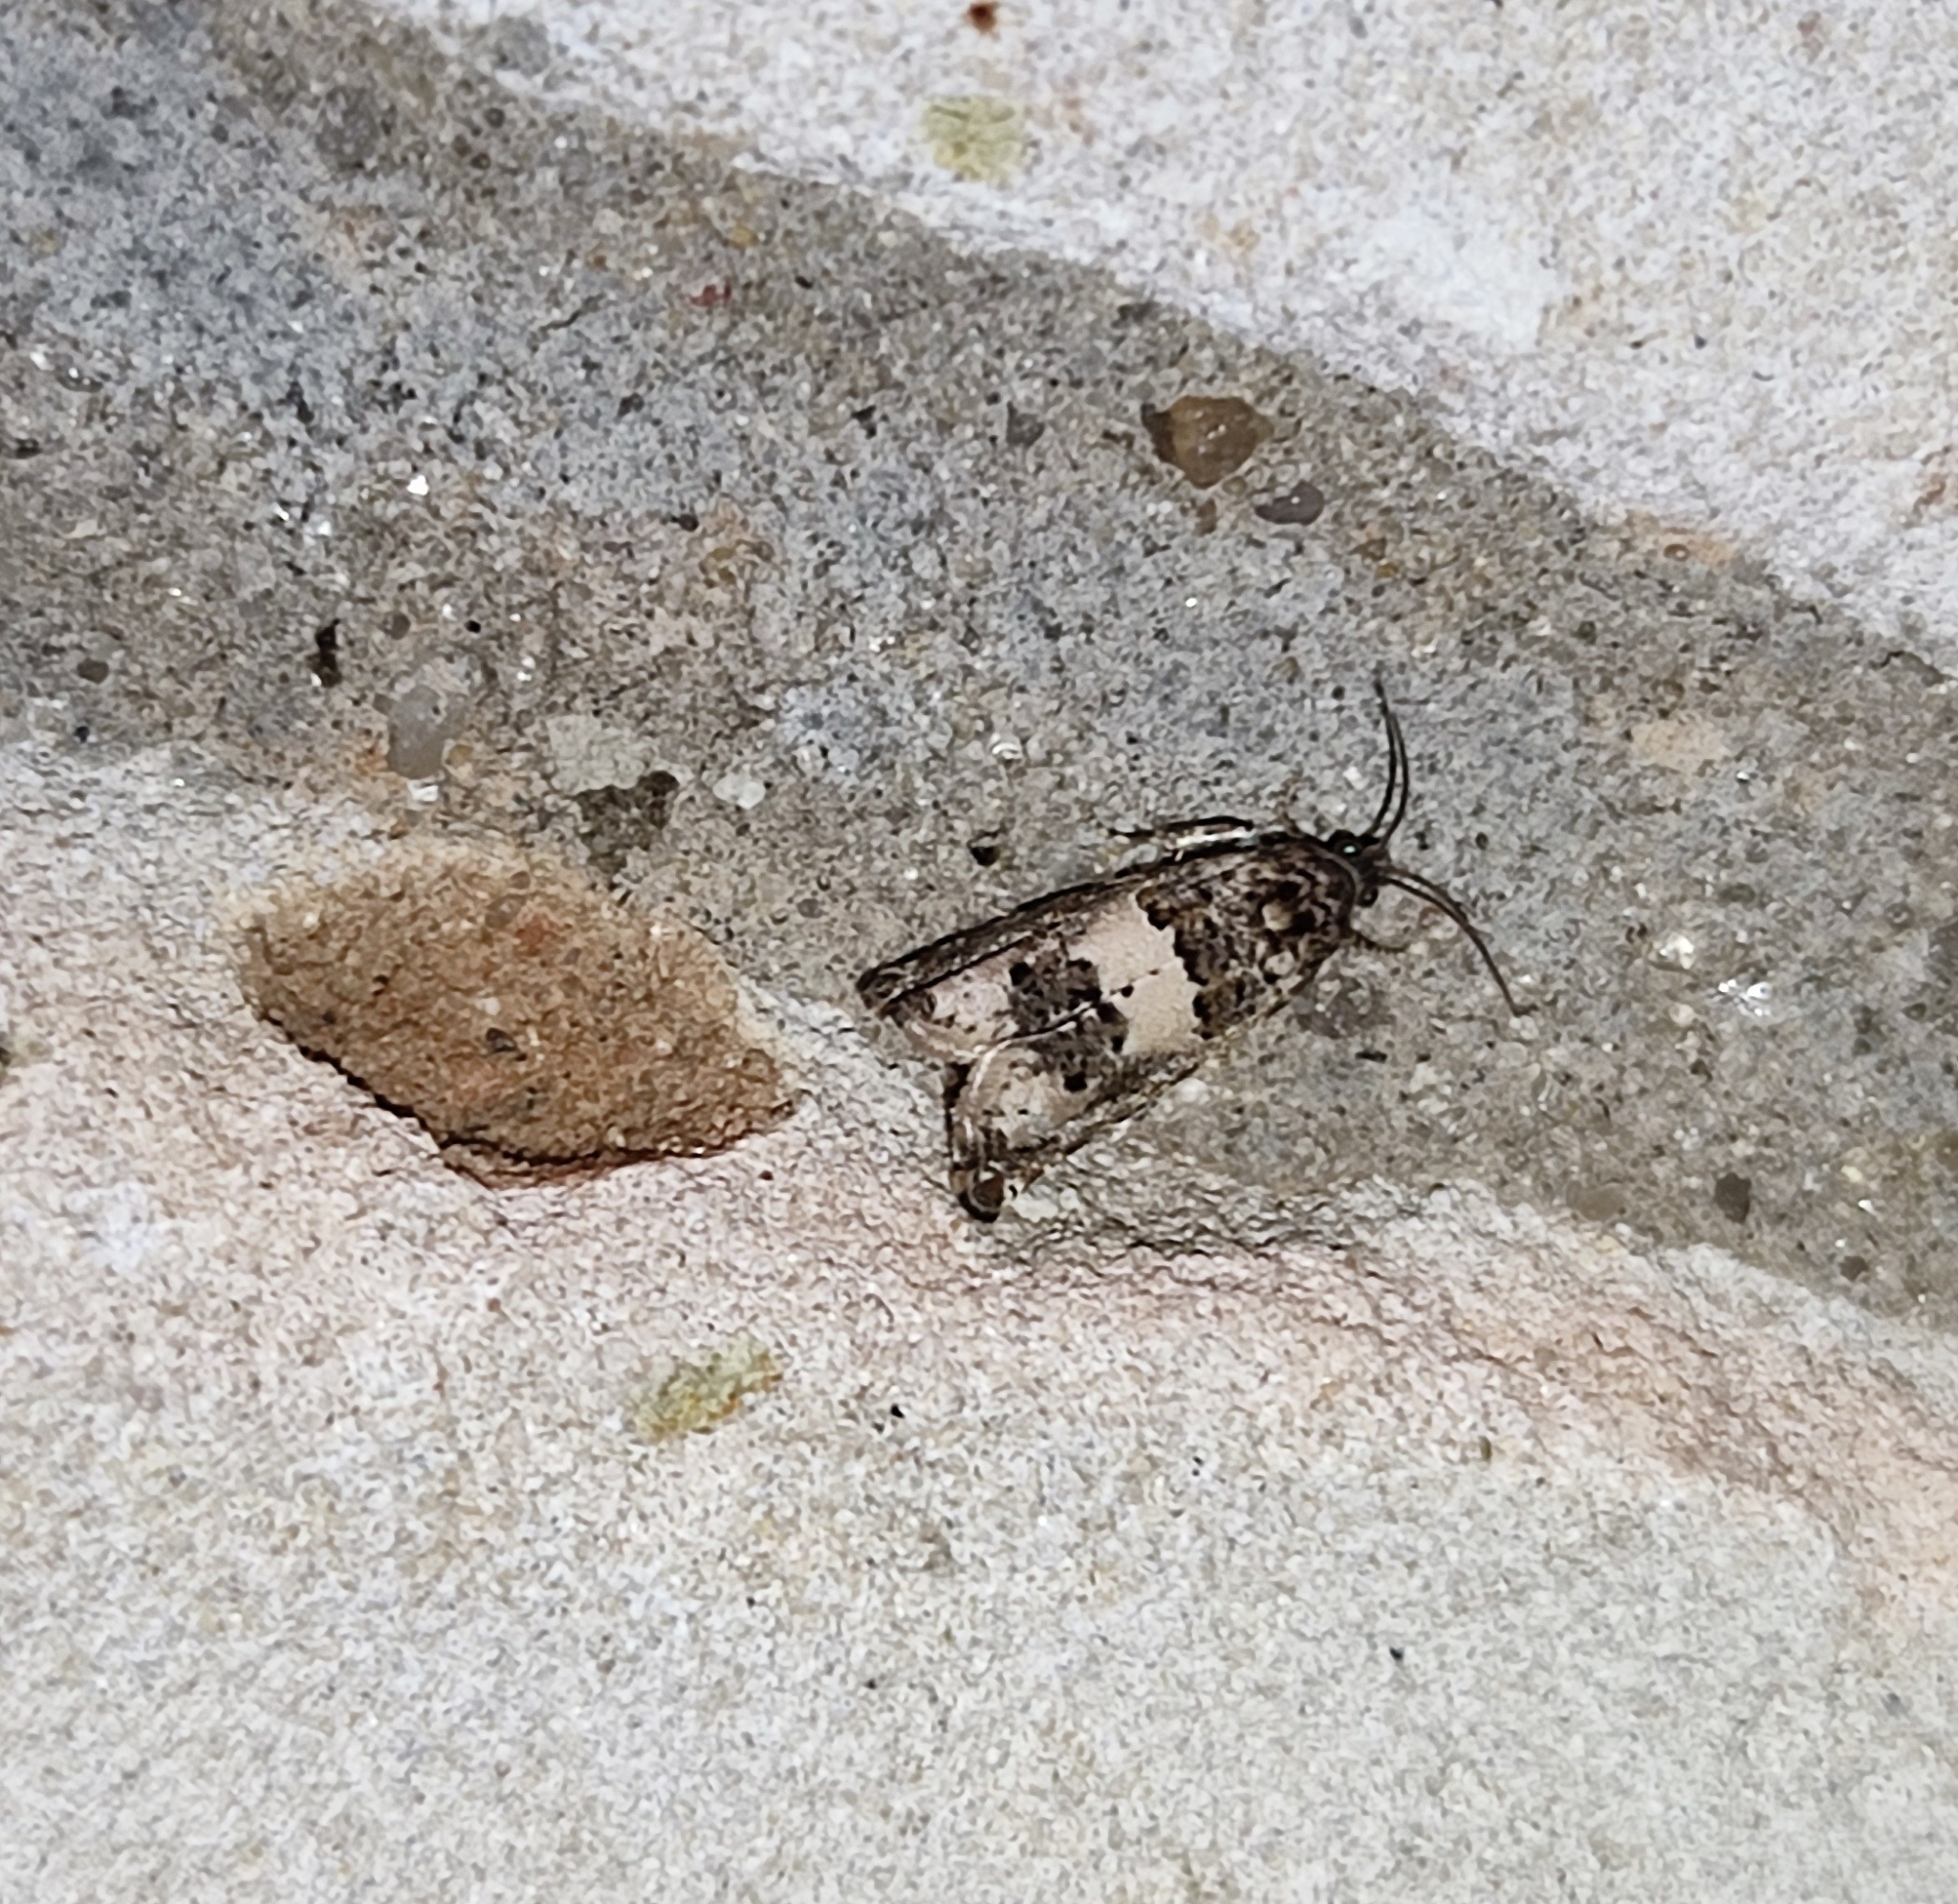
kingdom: Animalia
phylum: Arthropoda
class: Insecta
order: Lepidoptera
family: Tortricidae
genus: Epiblema
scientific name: Epiblema scutulana
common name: Thistle bell
